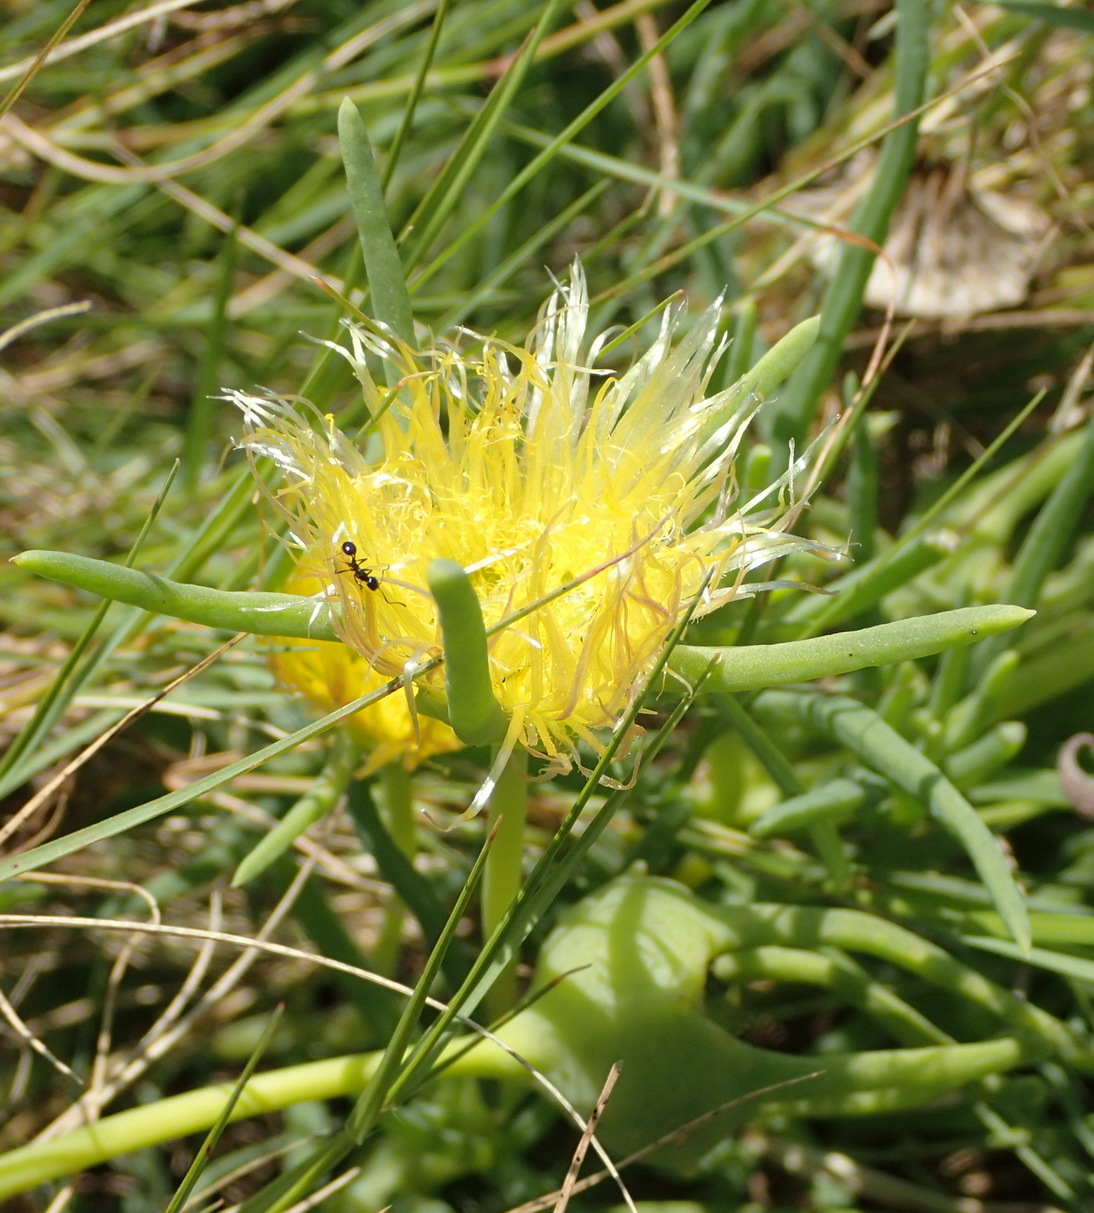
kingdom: Plantae
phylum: Tracheophyta
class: Magnoliopsida
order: Caryophyllales
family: Aizoaceae
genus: Conicosia
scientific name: Conicosia pugioniformis
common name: Narrow-leaved iceplant
